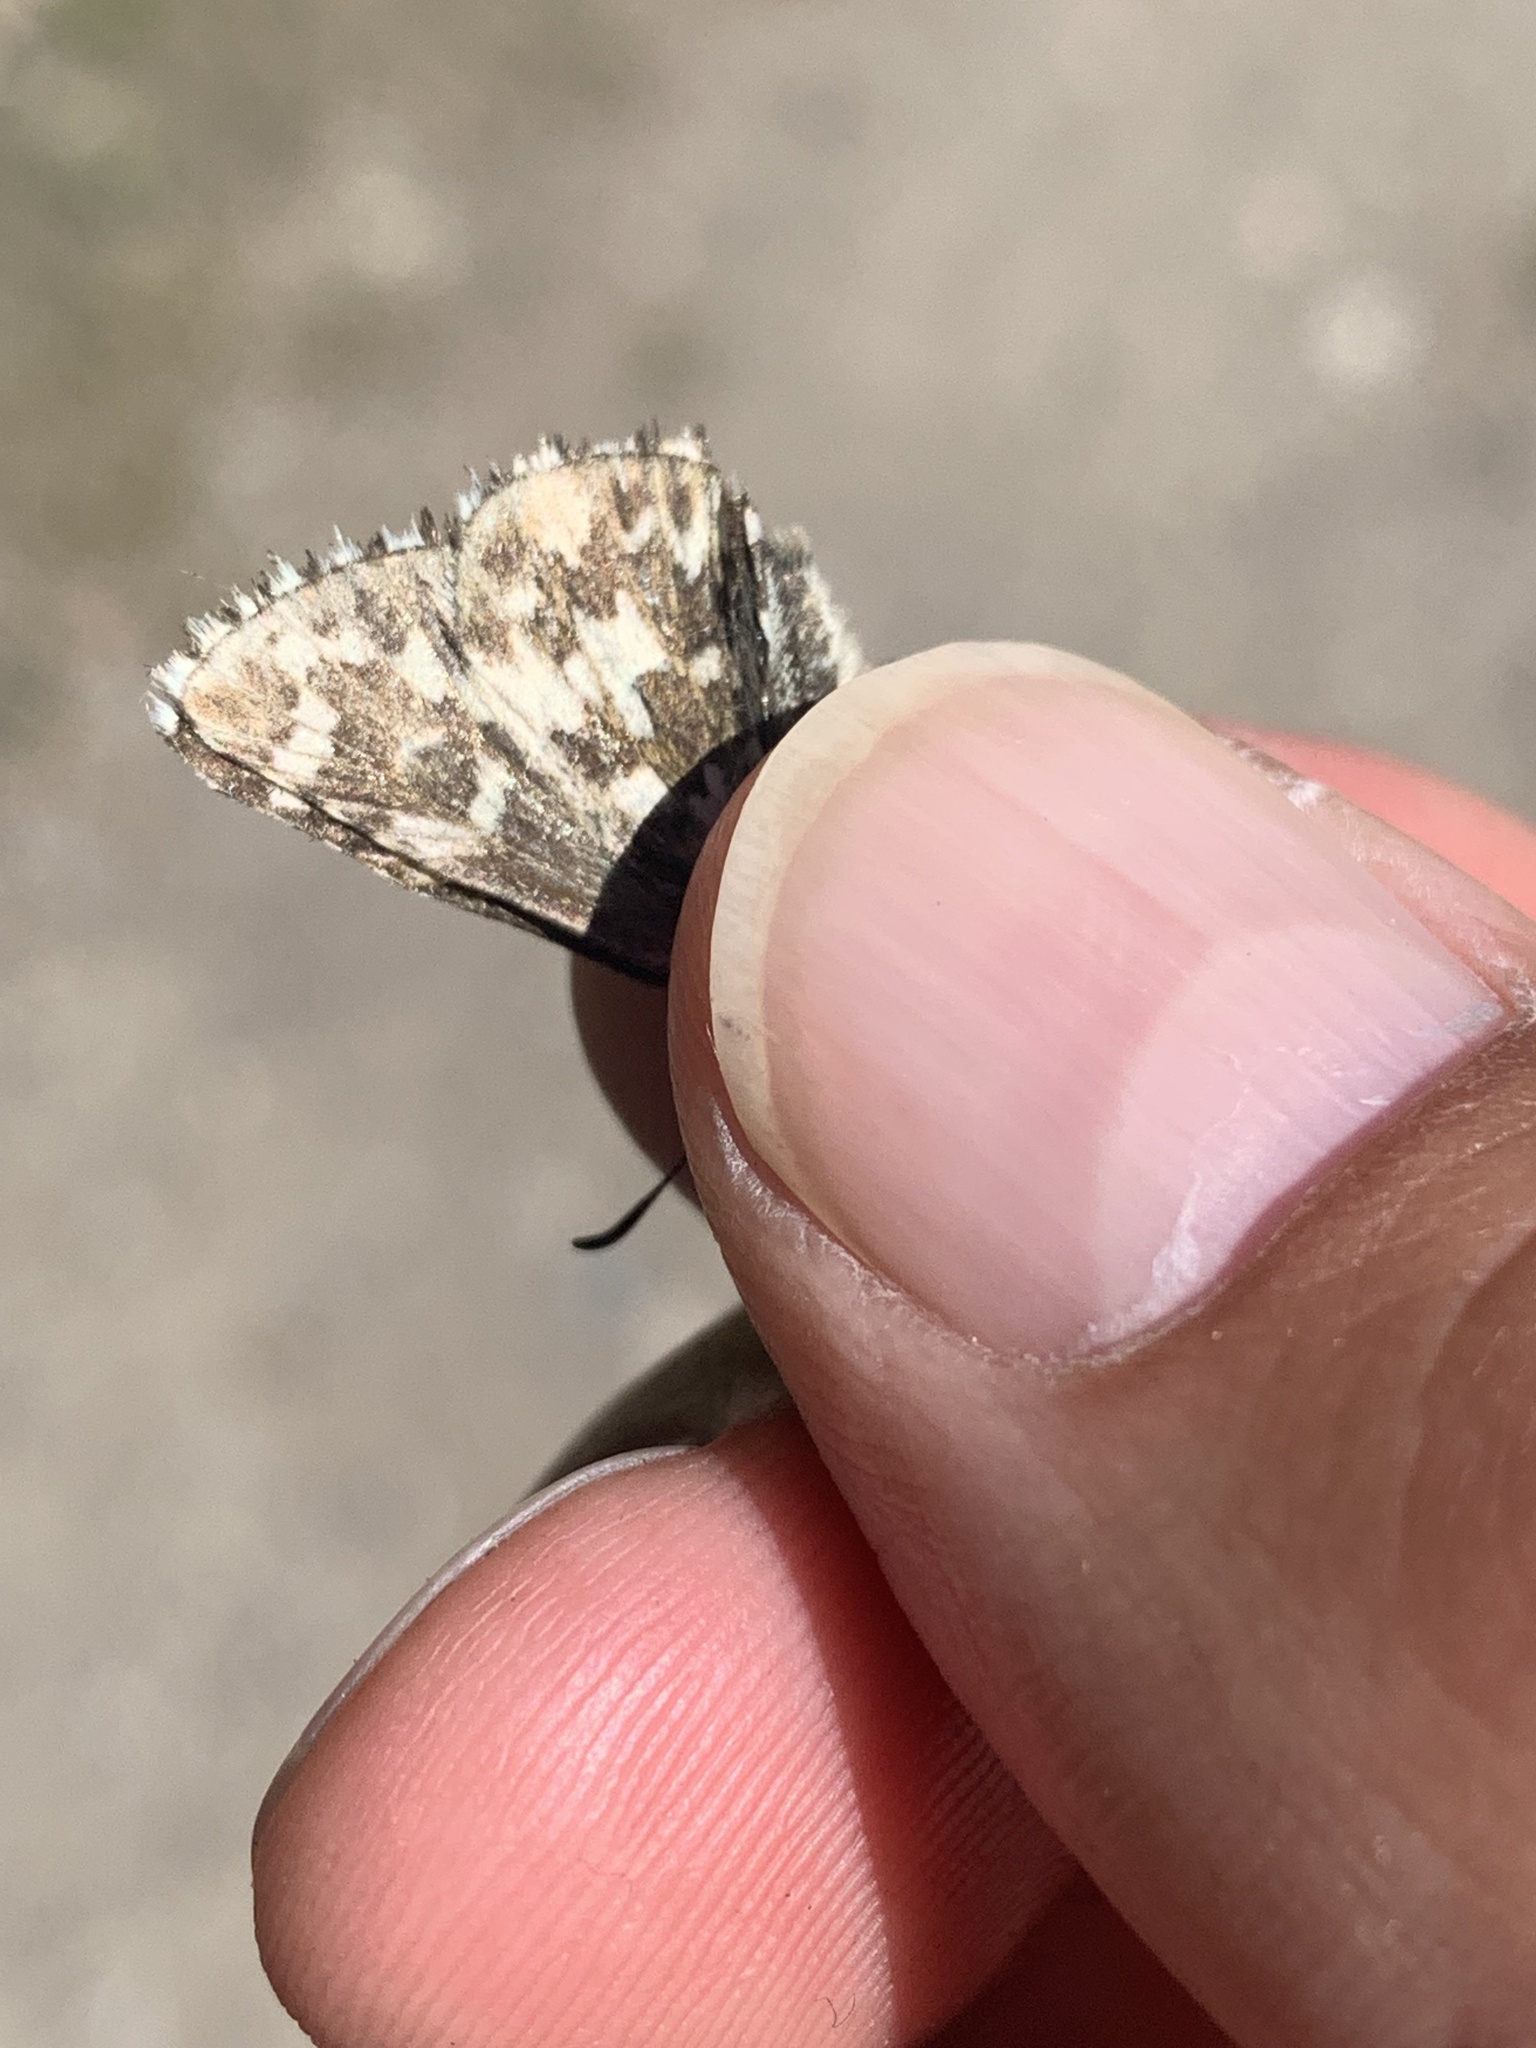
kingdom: Animalia
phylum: Arthropoda
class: Insecta
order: Lepidoptera
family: Hesperiidae
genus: Pyrgus
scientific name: Pyrgus centaureae
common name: Northern grizzled skipper
